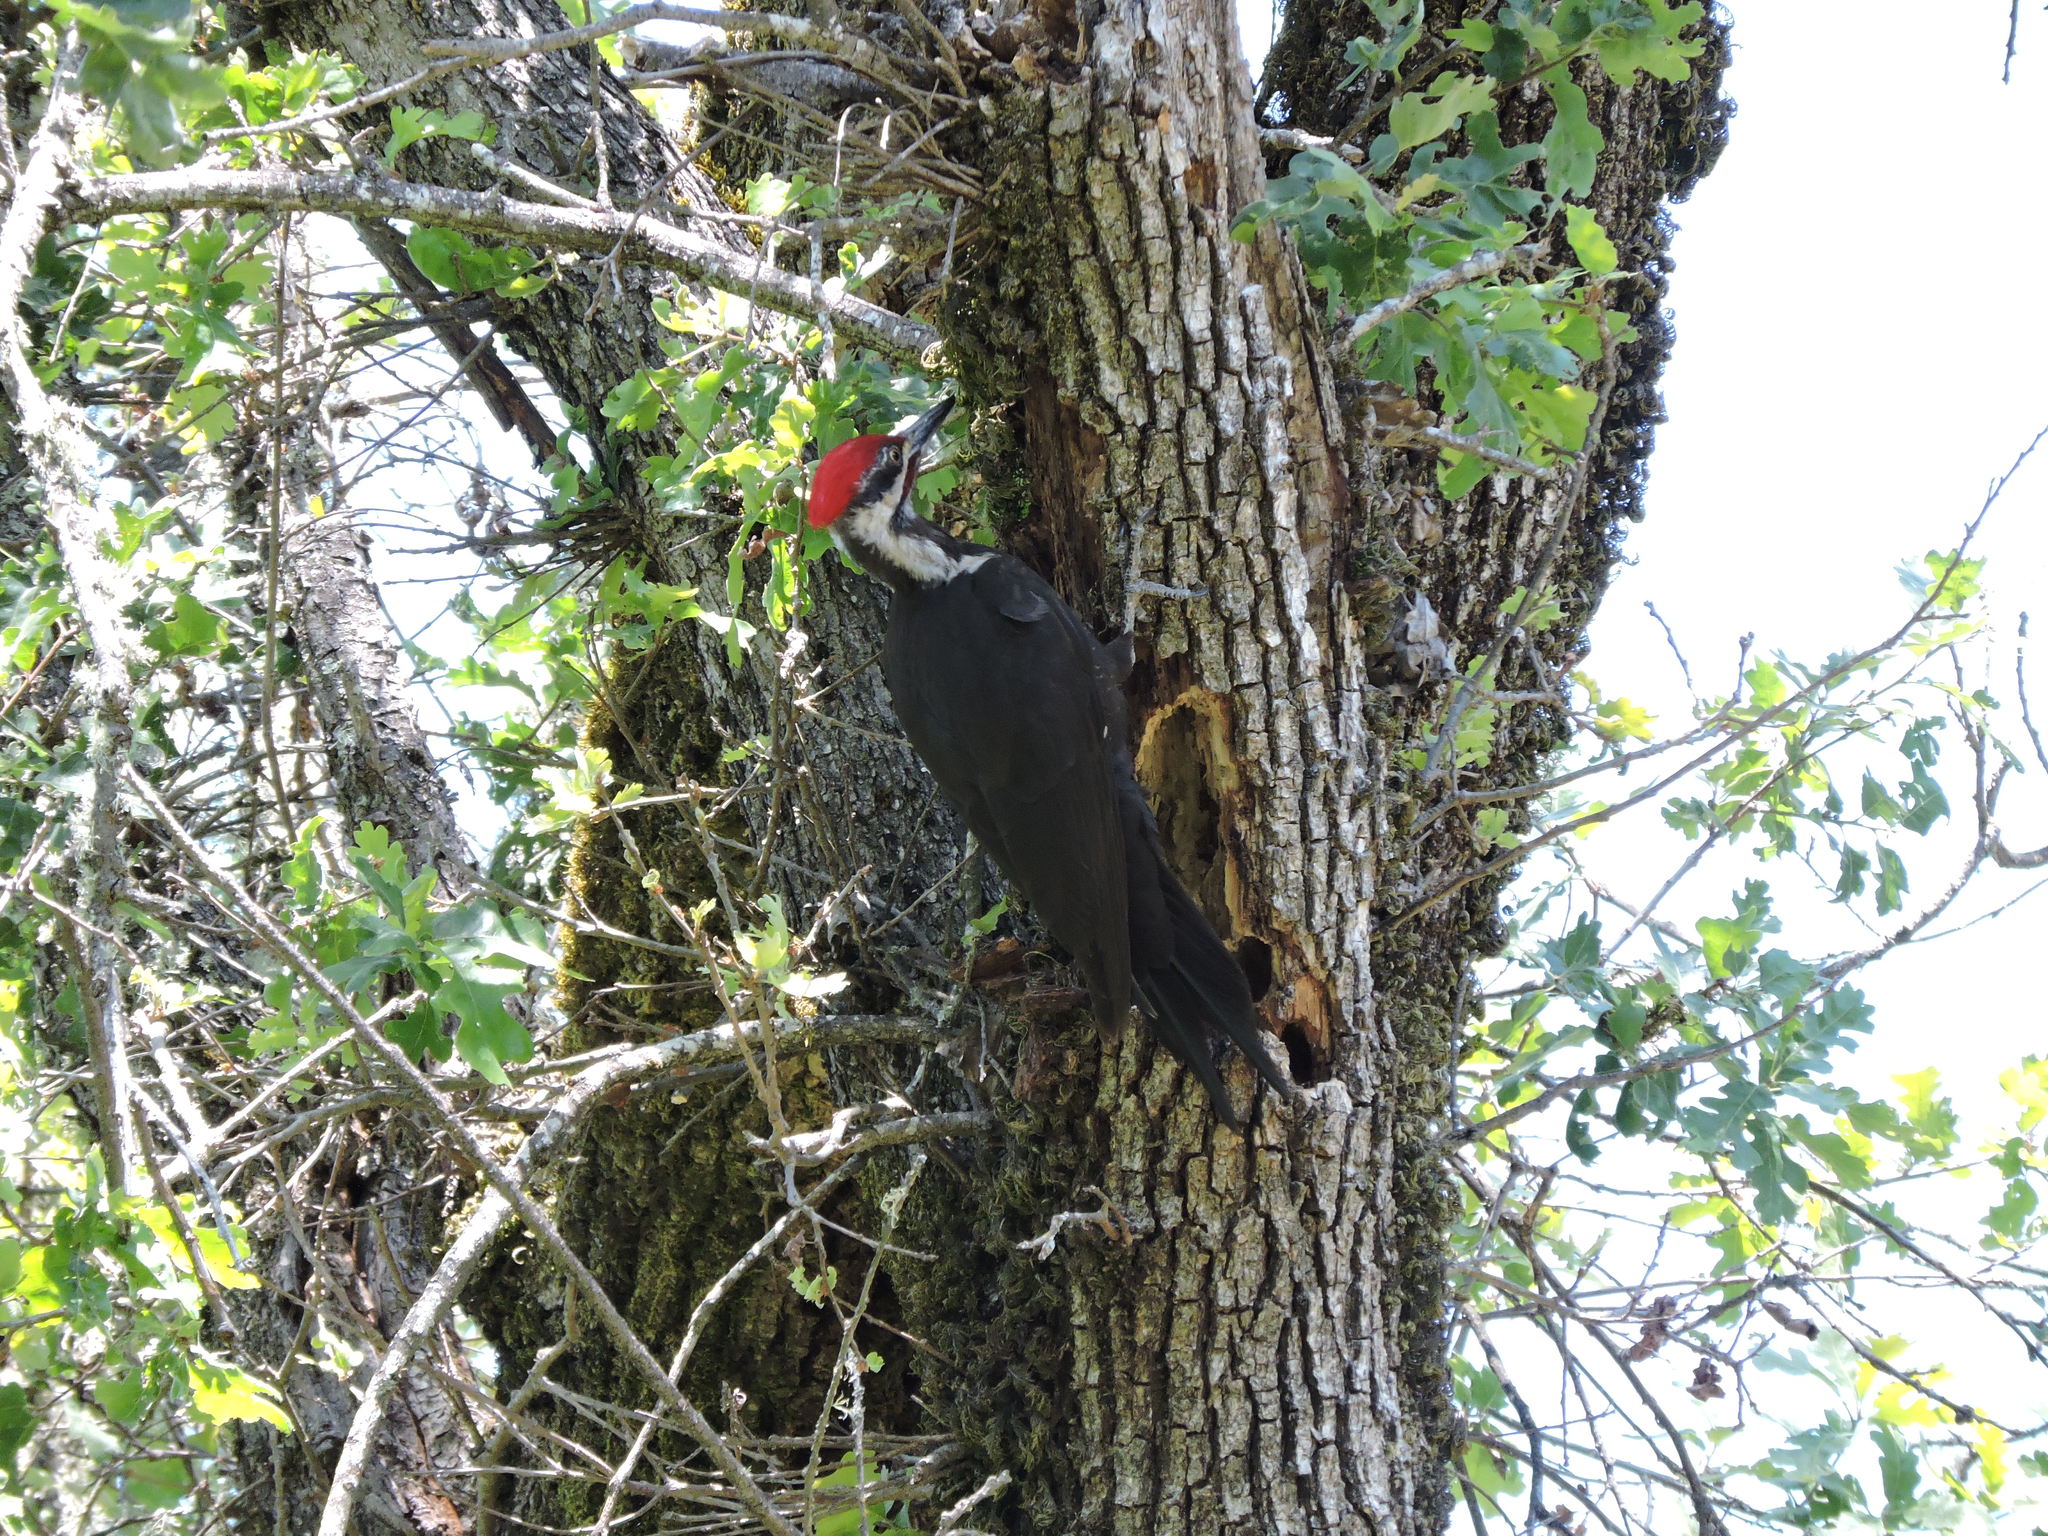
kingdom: Animalia
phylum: Chordata
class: Aves
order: Piciformes
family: Picidae
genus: Dryocopus
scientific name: Dryocopus pileatus
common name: Pileated woodpecker
